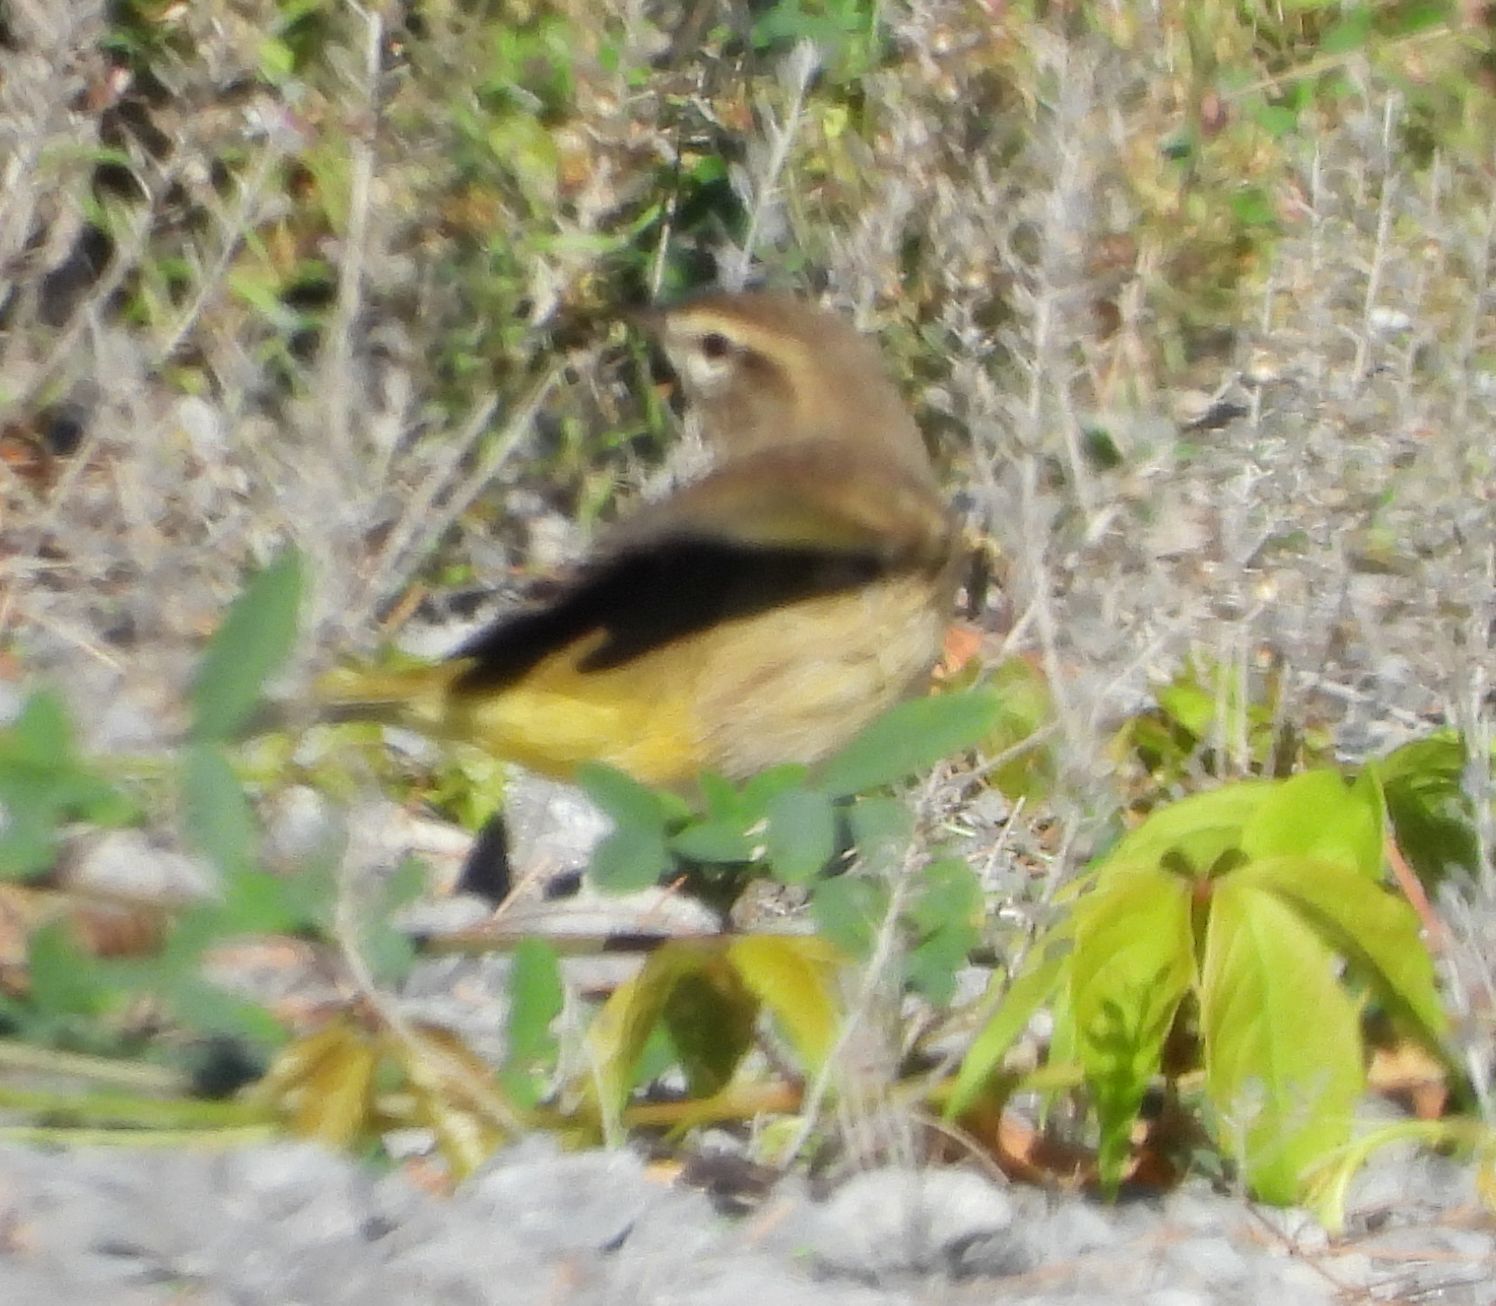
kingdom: Animalia
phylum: Chordata
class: Aves
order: Passeriformes
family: Parulidae
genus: Setophaga
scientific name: Setophaga palmarum
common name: Palm warbler
